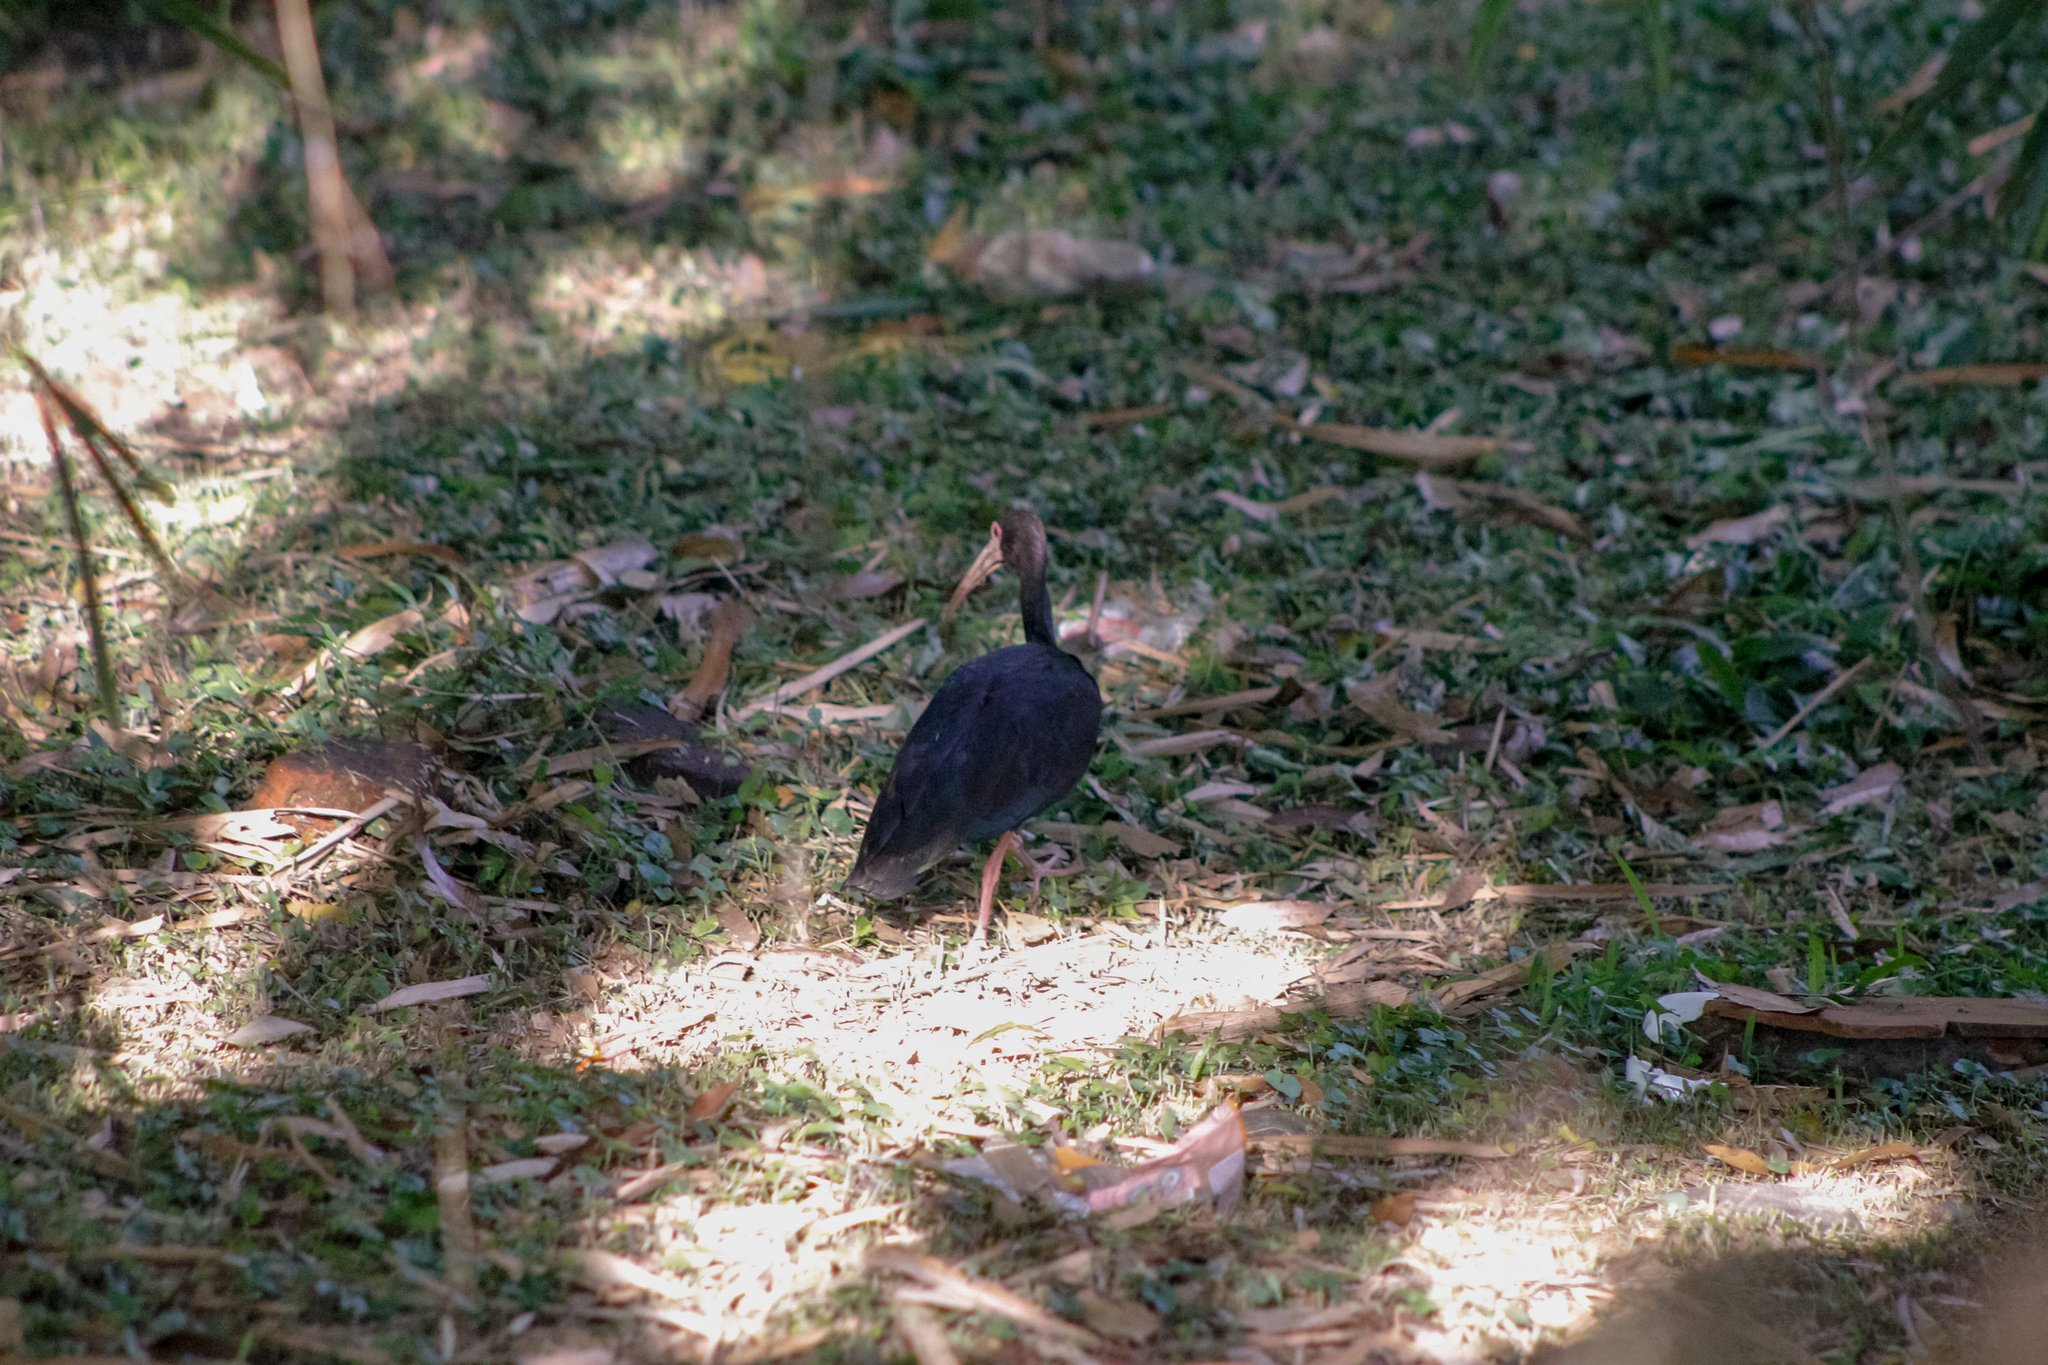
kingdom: Animalia
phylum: Chordata
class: Aves
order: Pelecaniformes
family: Threskiornithidae
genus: Phimosus
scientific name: Phimosus infuscatus
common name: Bare-faced ibis
